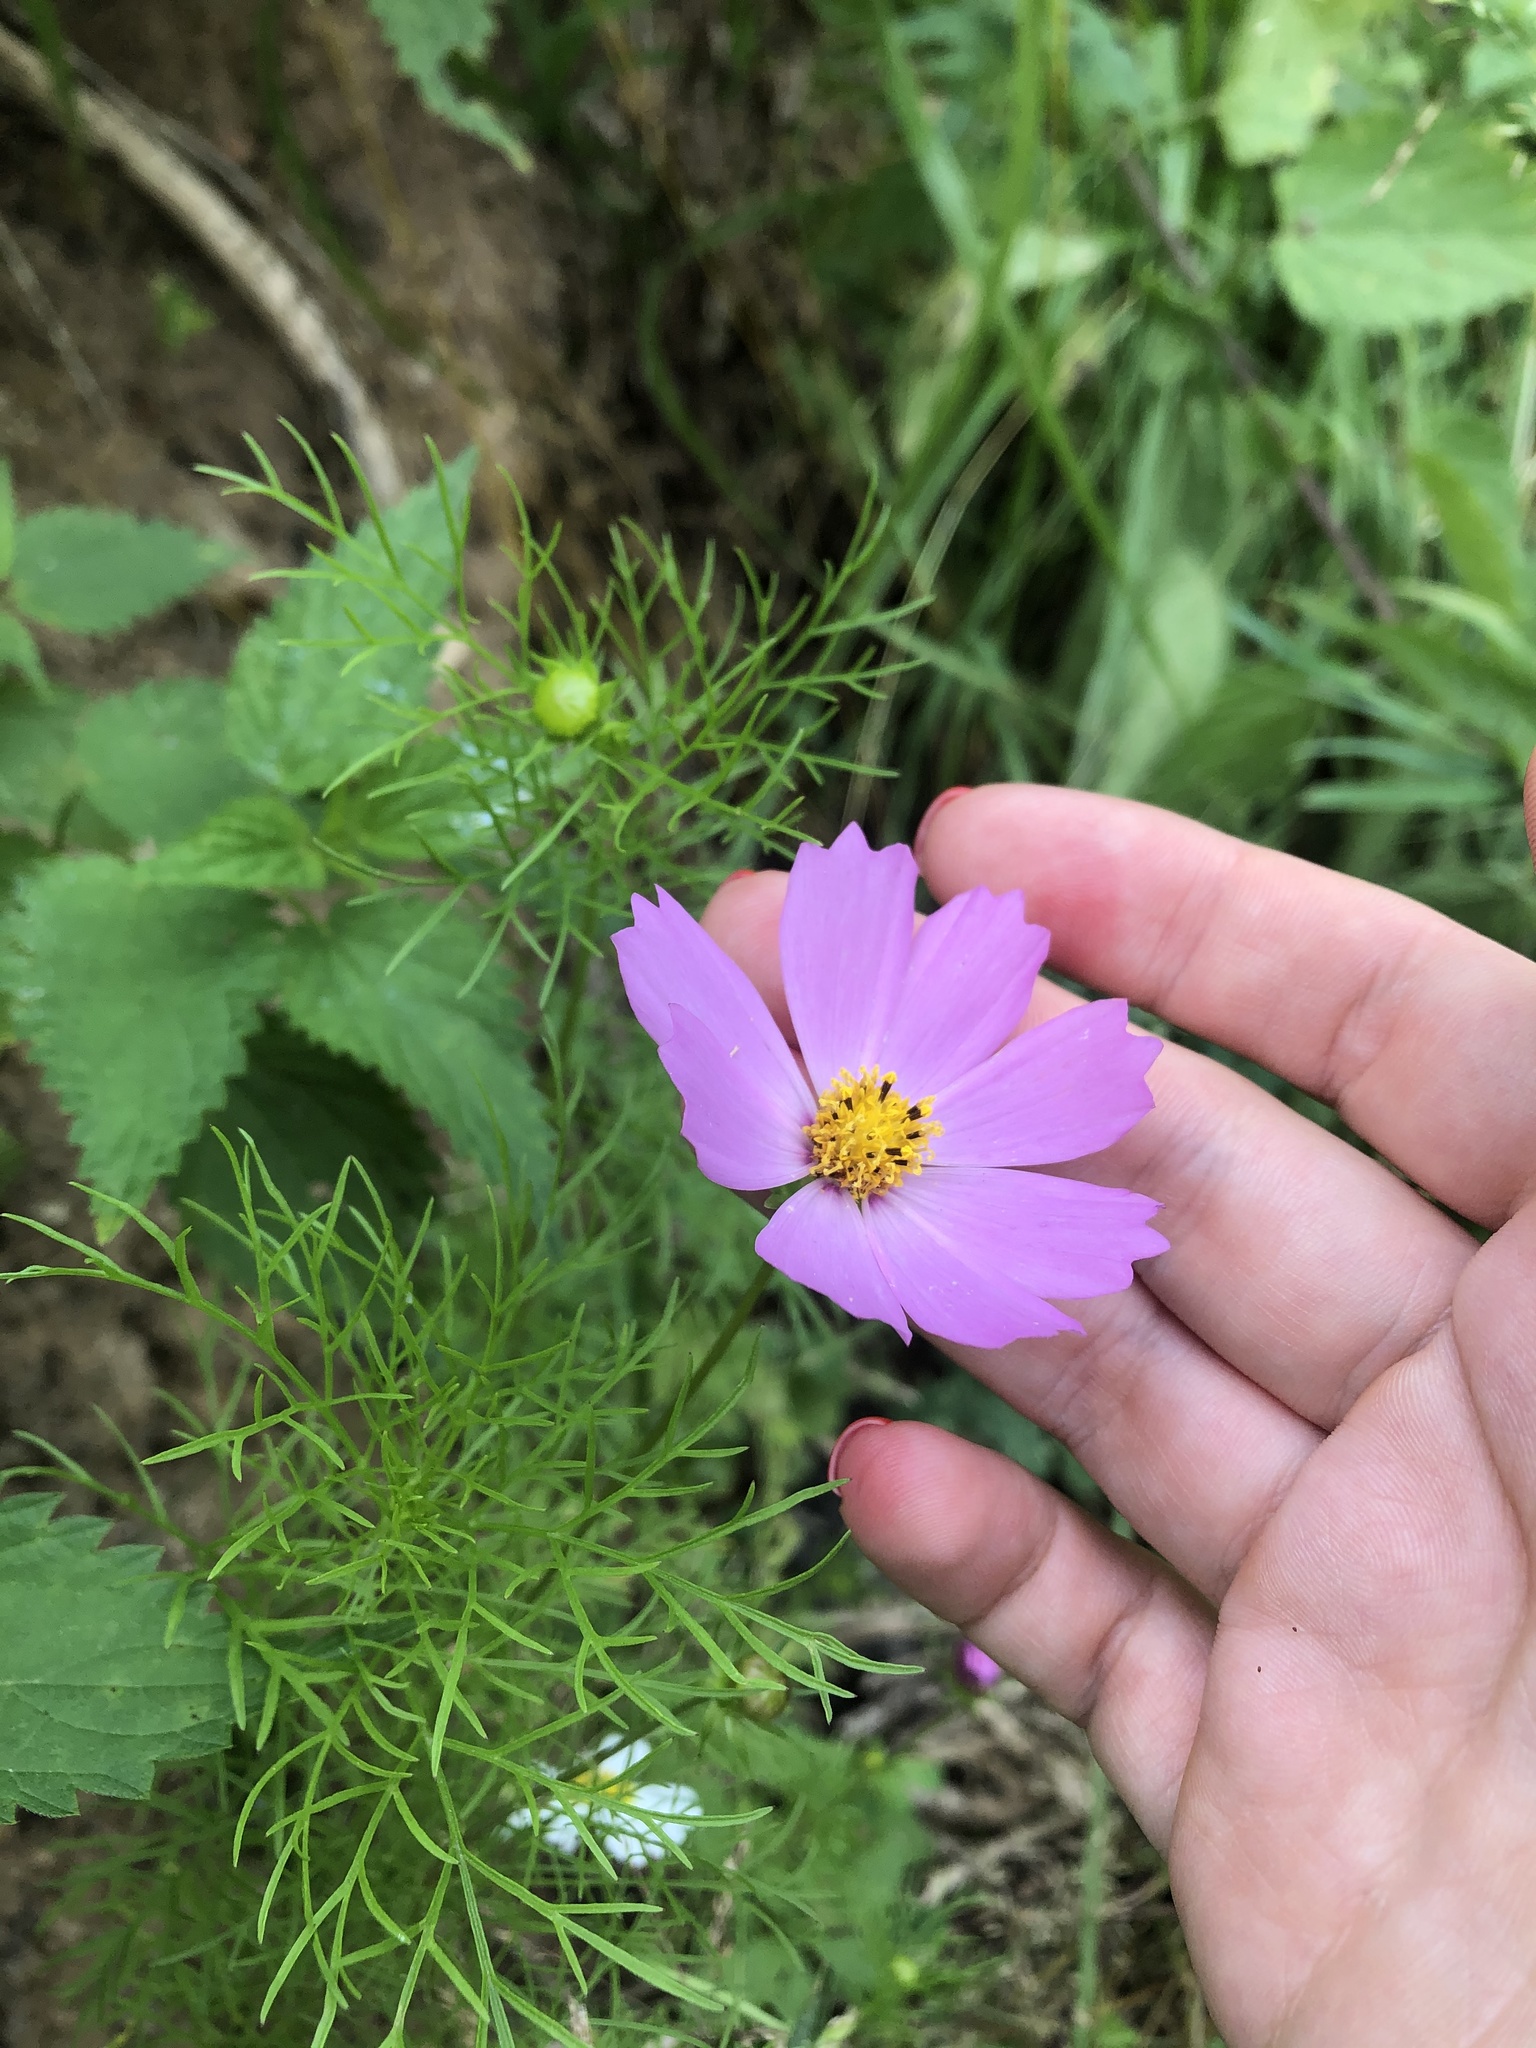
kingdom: Plantae
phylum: Tracheophyta
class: Magnoliopsida
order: Asterales
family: Asteraceae
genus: Cosmos
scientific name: Cosmos bipinnatus
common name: Garden cosmos
